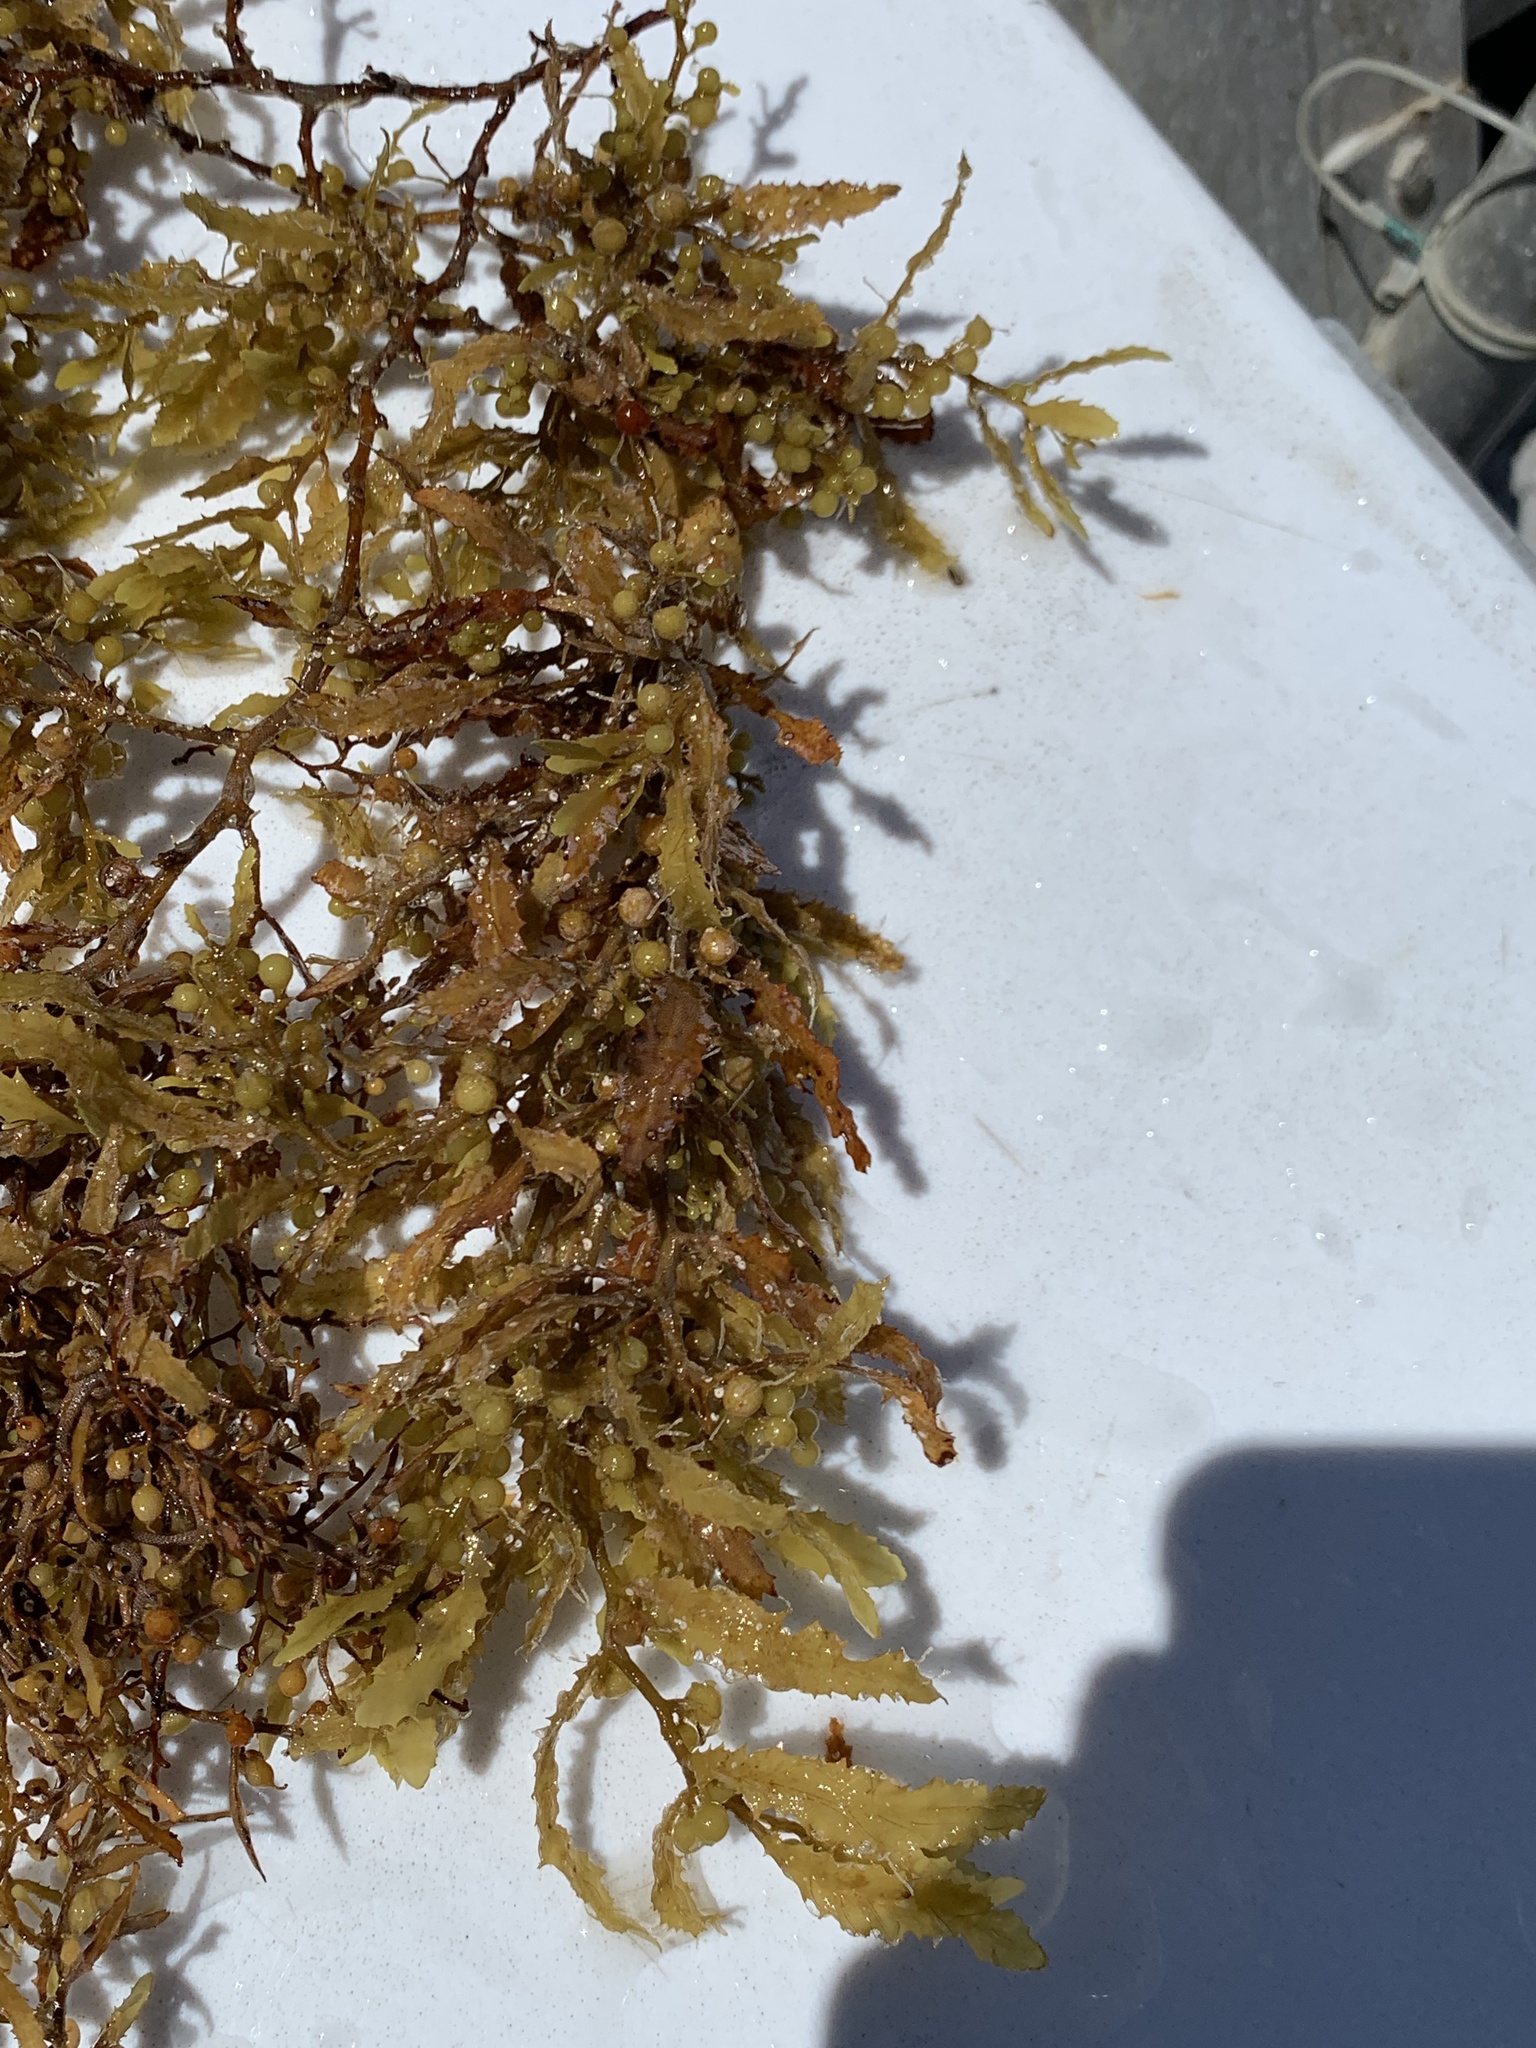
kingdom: Chromista
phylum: Ochrophyta
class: Phaeophyceae
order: Fucales
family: Sargassaceae
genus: Sargassum
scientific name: Sargassum fluitans
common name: Sargassum seaweed
